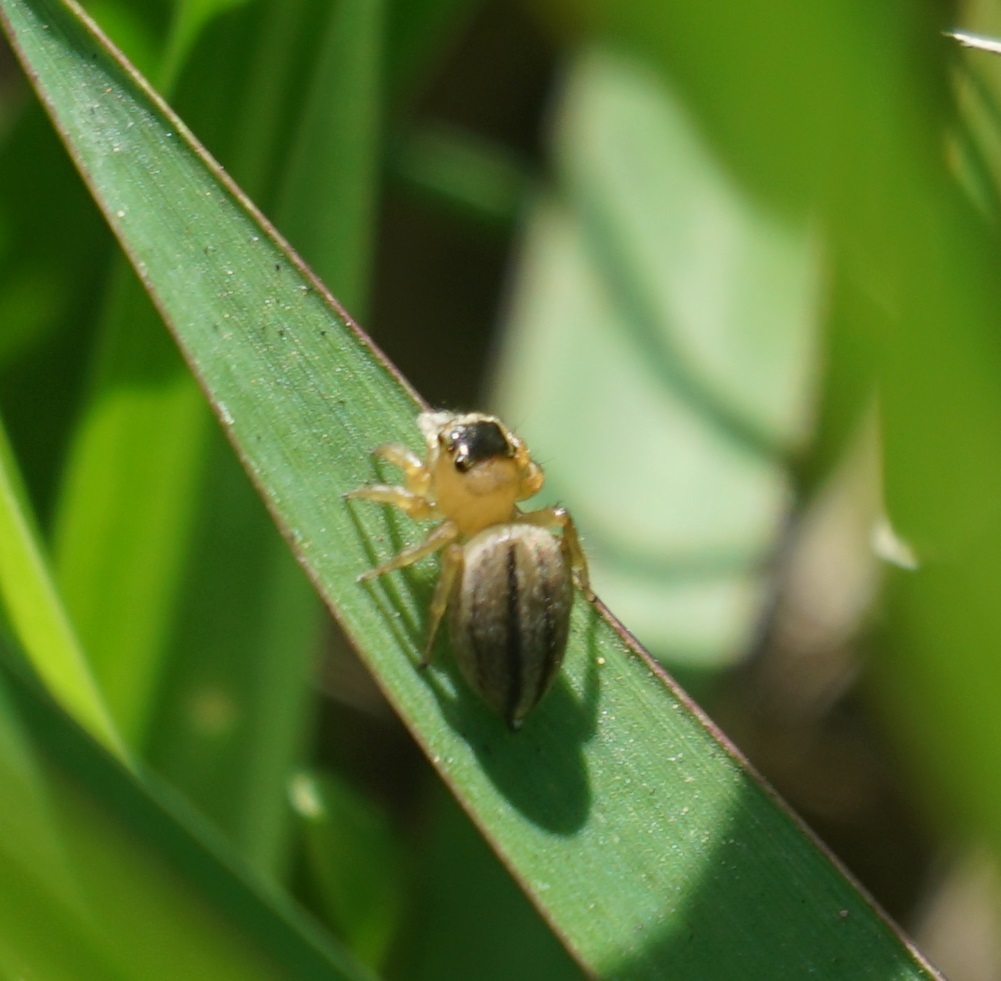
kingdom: Animalia
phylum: Arthropoda
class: Arachnida
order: Araneae
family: Salticidae
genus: Maratus
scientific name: Maratus scutulatus
